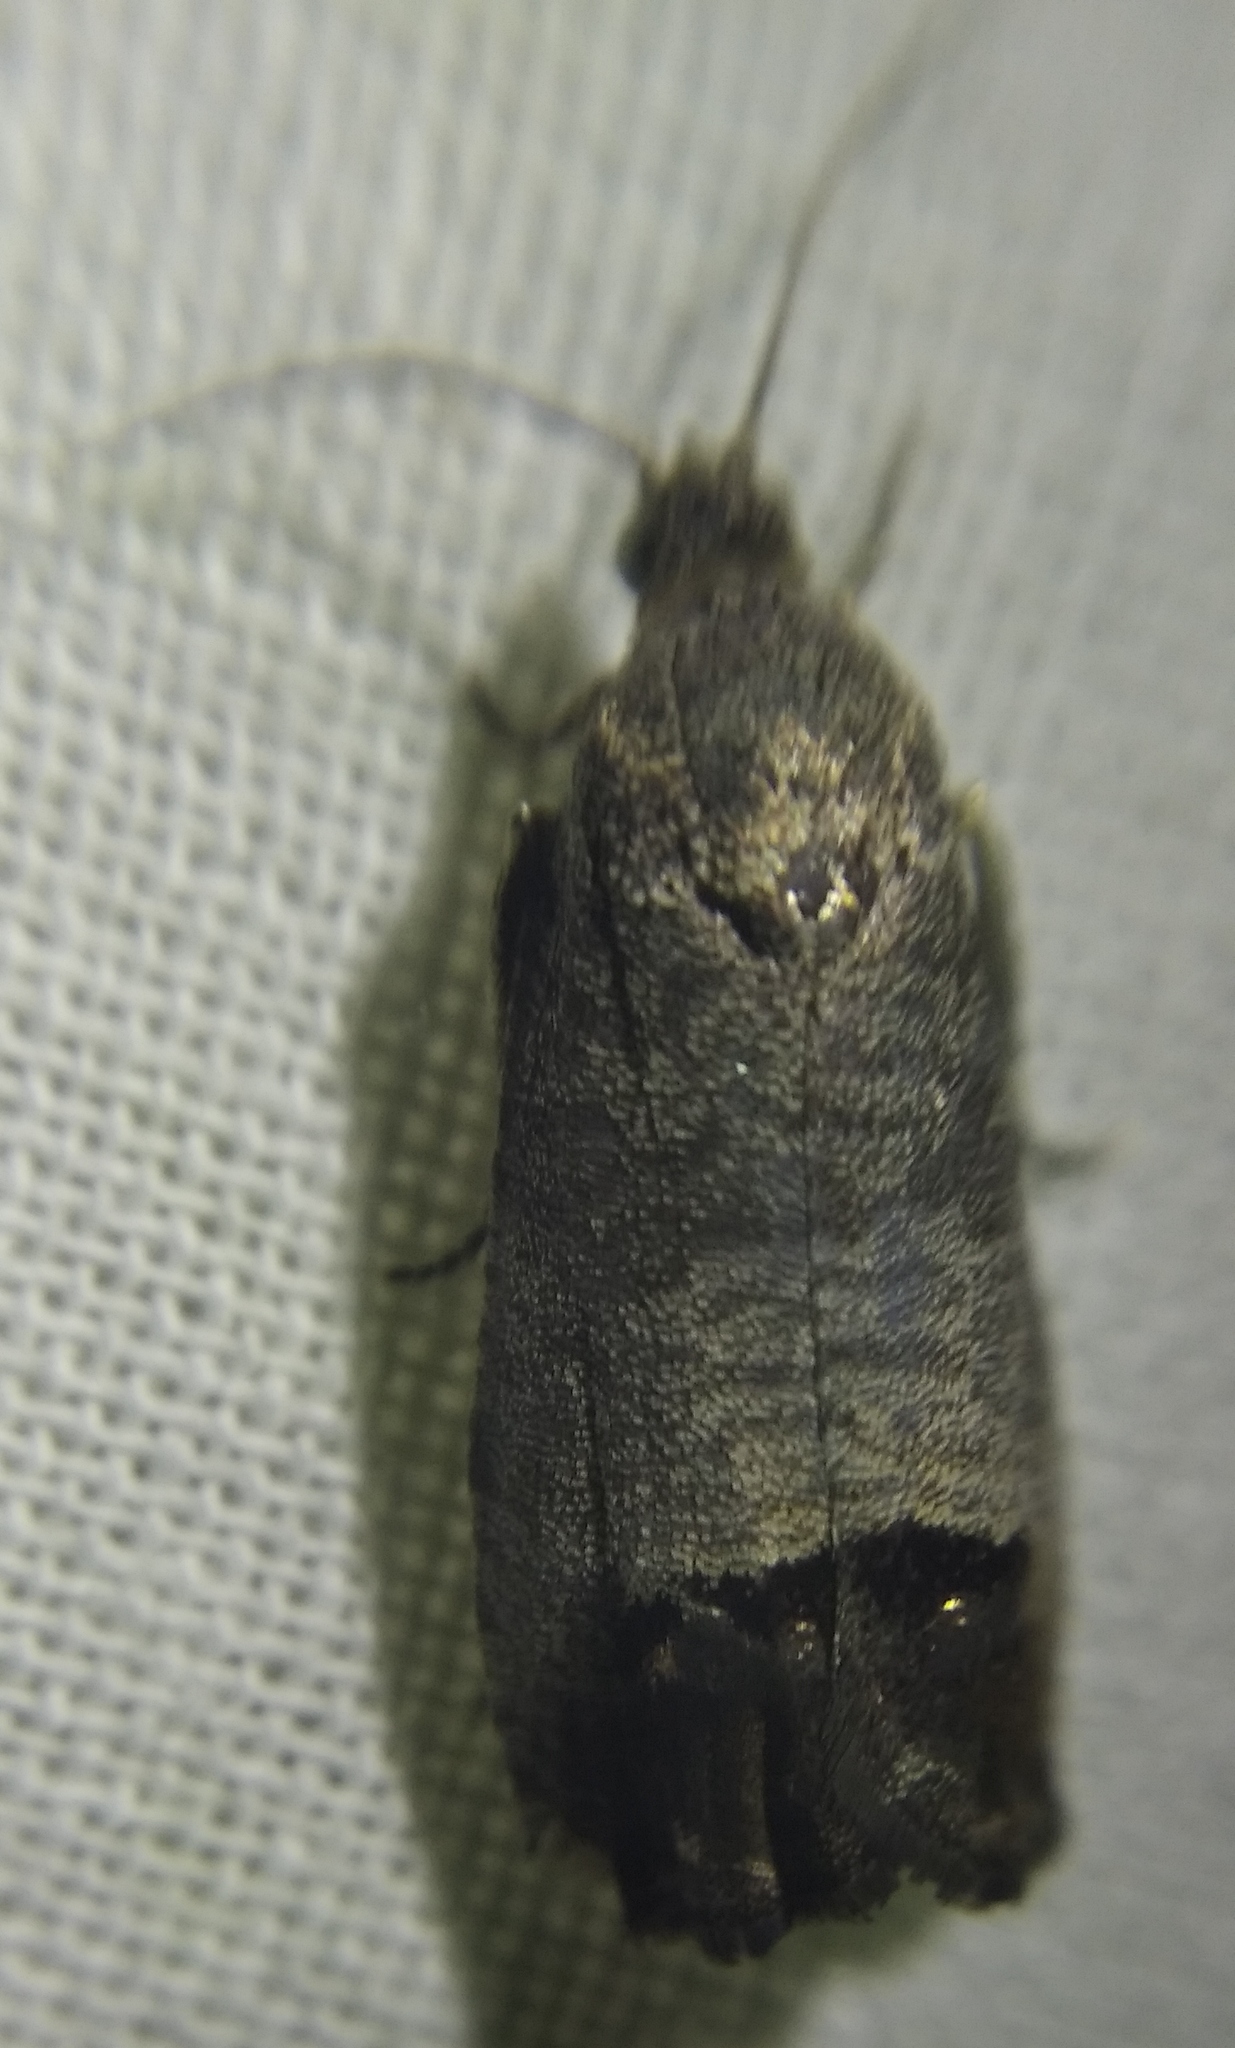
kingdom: Animalia
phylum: Arthropoda
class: Insecta
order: Lepidoptera
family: Tortricidae
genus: Cydia
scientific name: Cydia pomonella
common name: Codling moth
